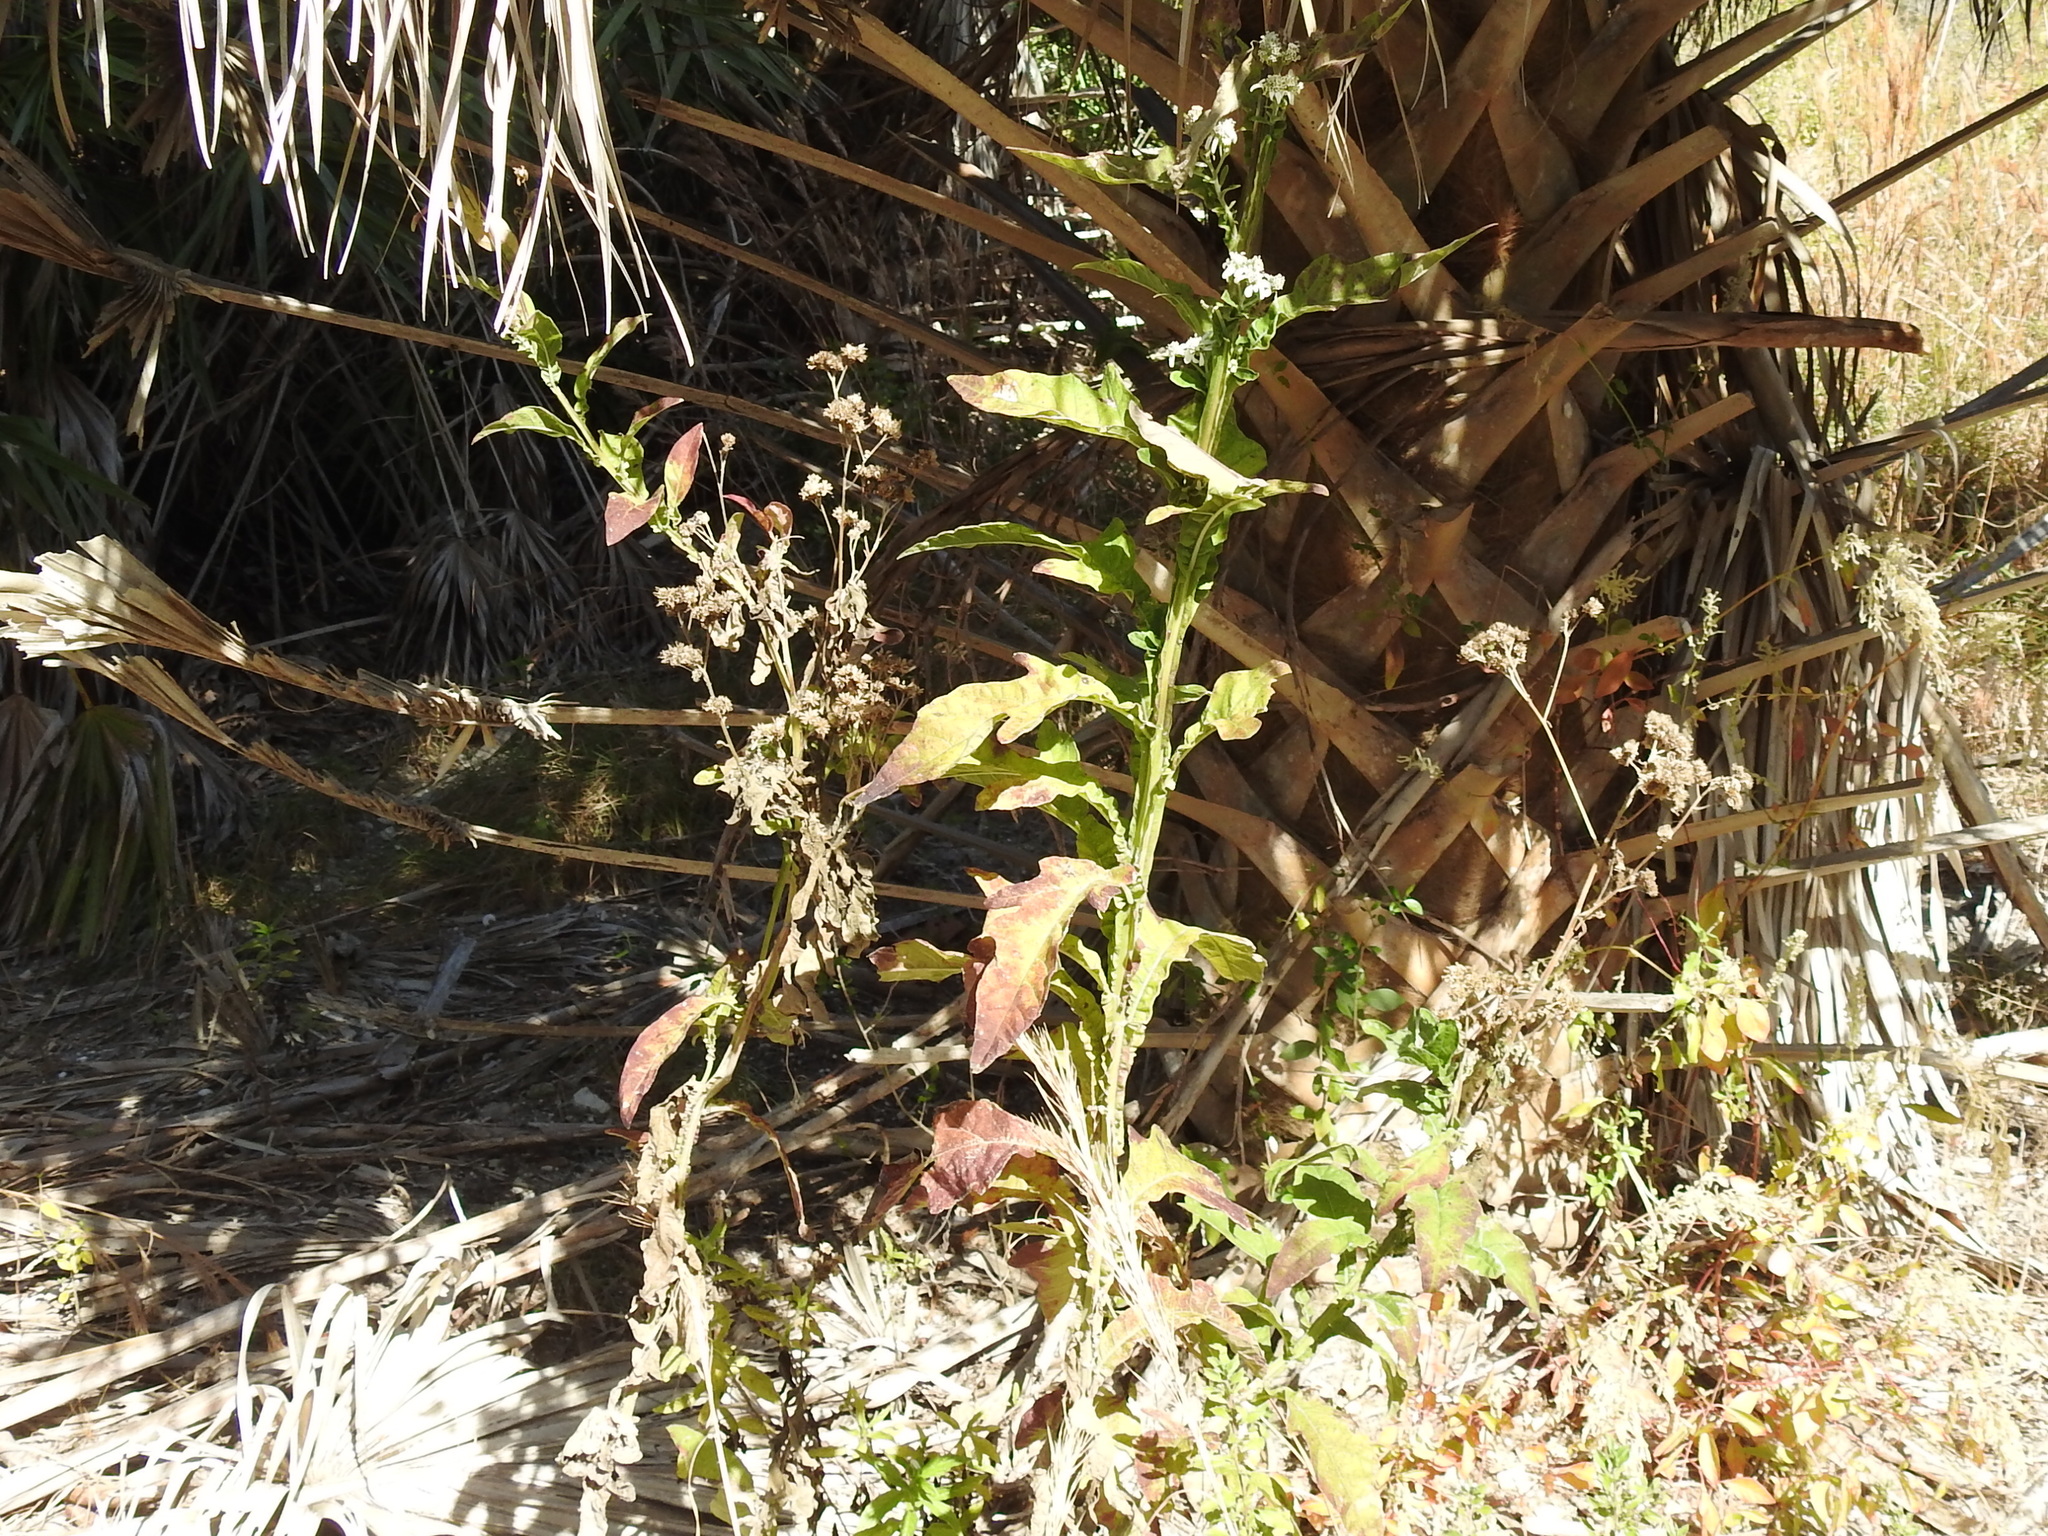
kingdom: Plantae
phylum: Tracheophyta
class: Magnoliopsida
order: Asterales
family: Asteraceae
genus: Verbesina
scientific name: Verbesina virginica
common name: Frostweed
